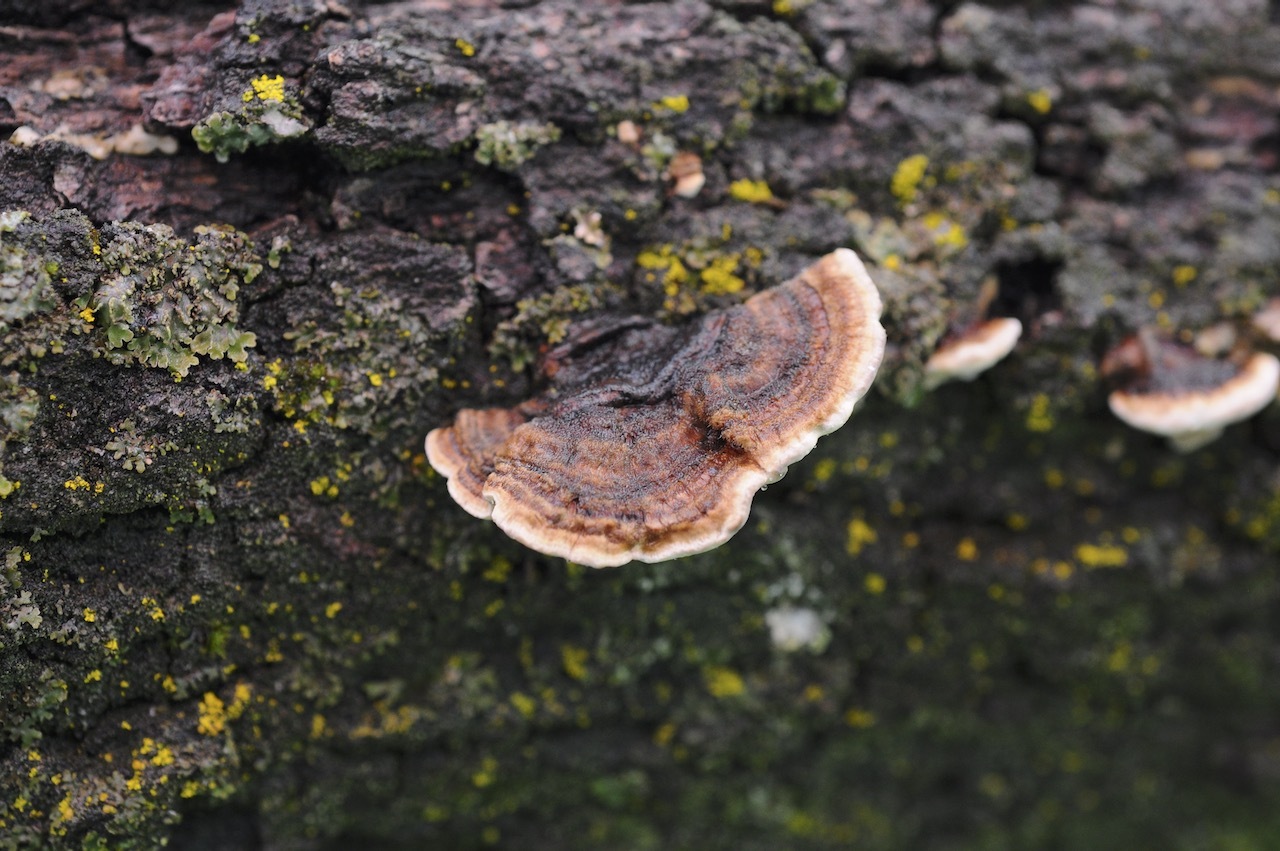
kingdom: Fungi
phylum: Basidiomycota
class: Agaricomycetes
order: Polyporales
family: Polyporaceae
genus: Trametes
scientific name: Trametes versicolor
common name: Turkeytail
